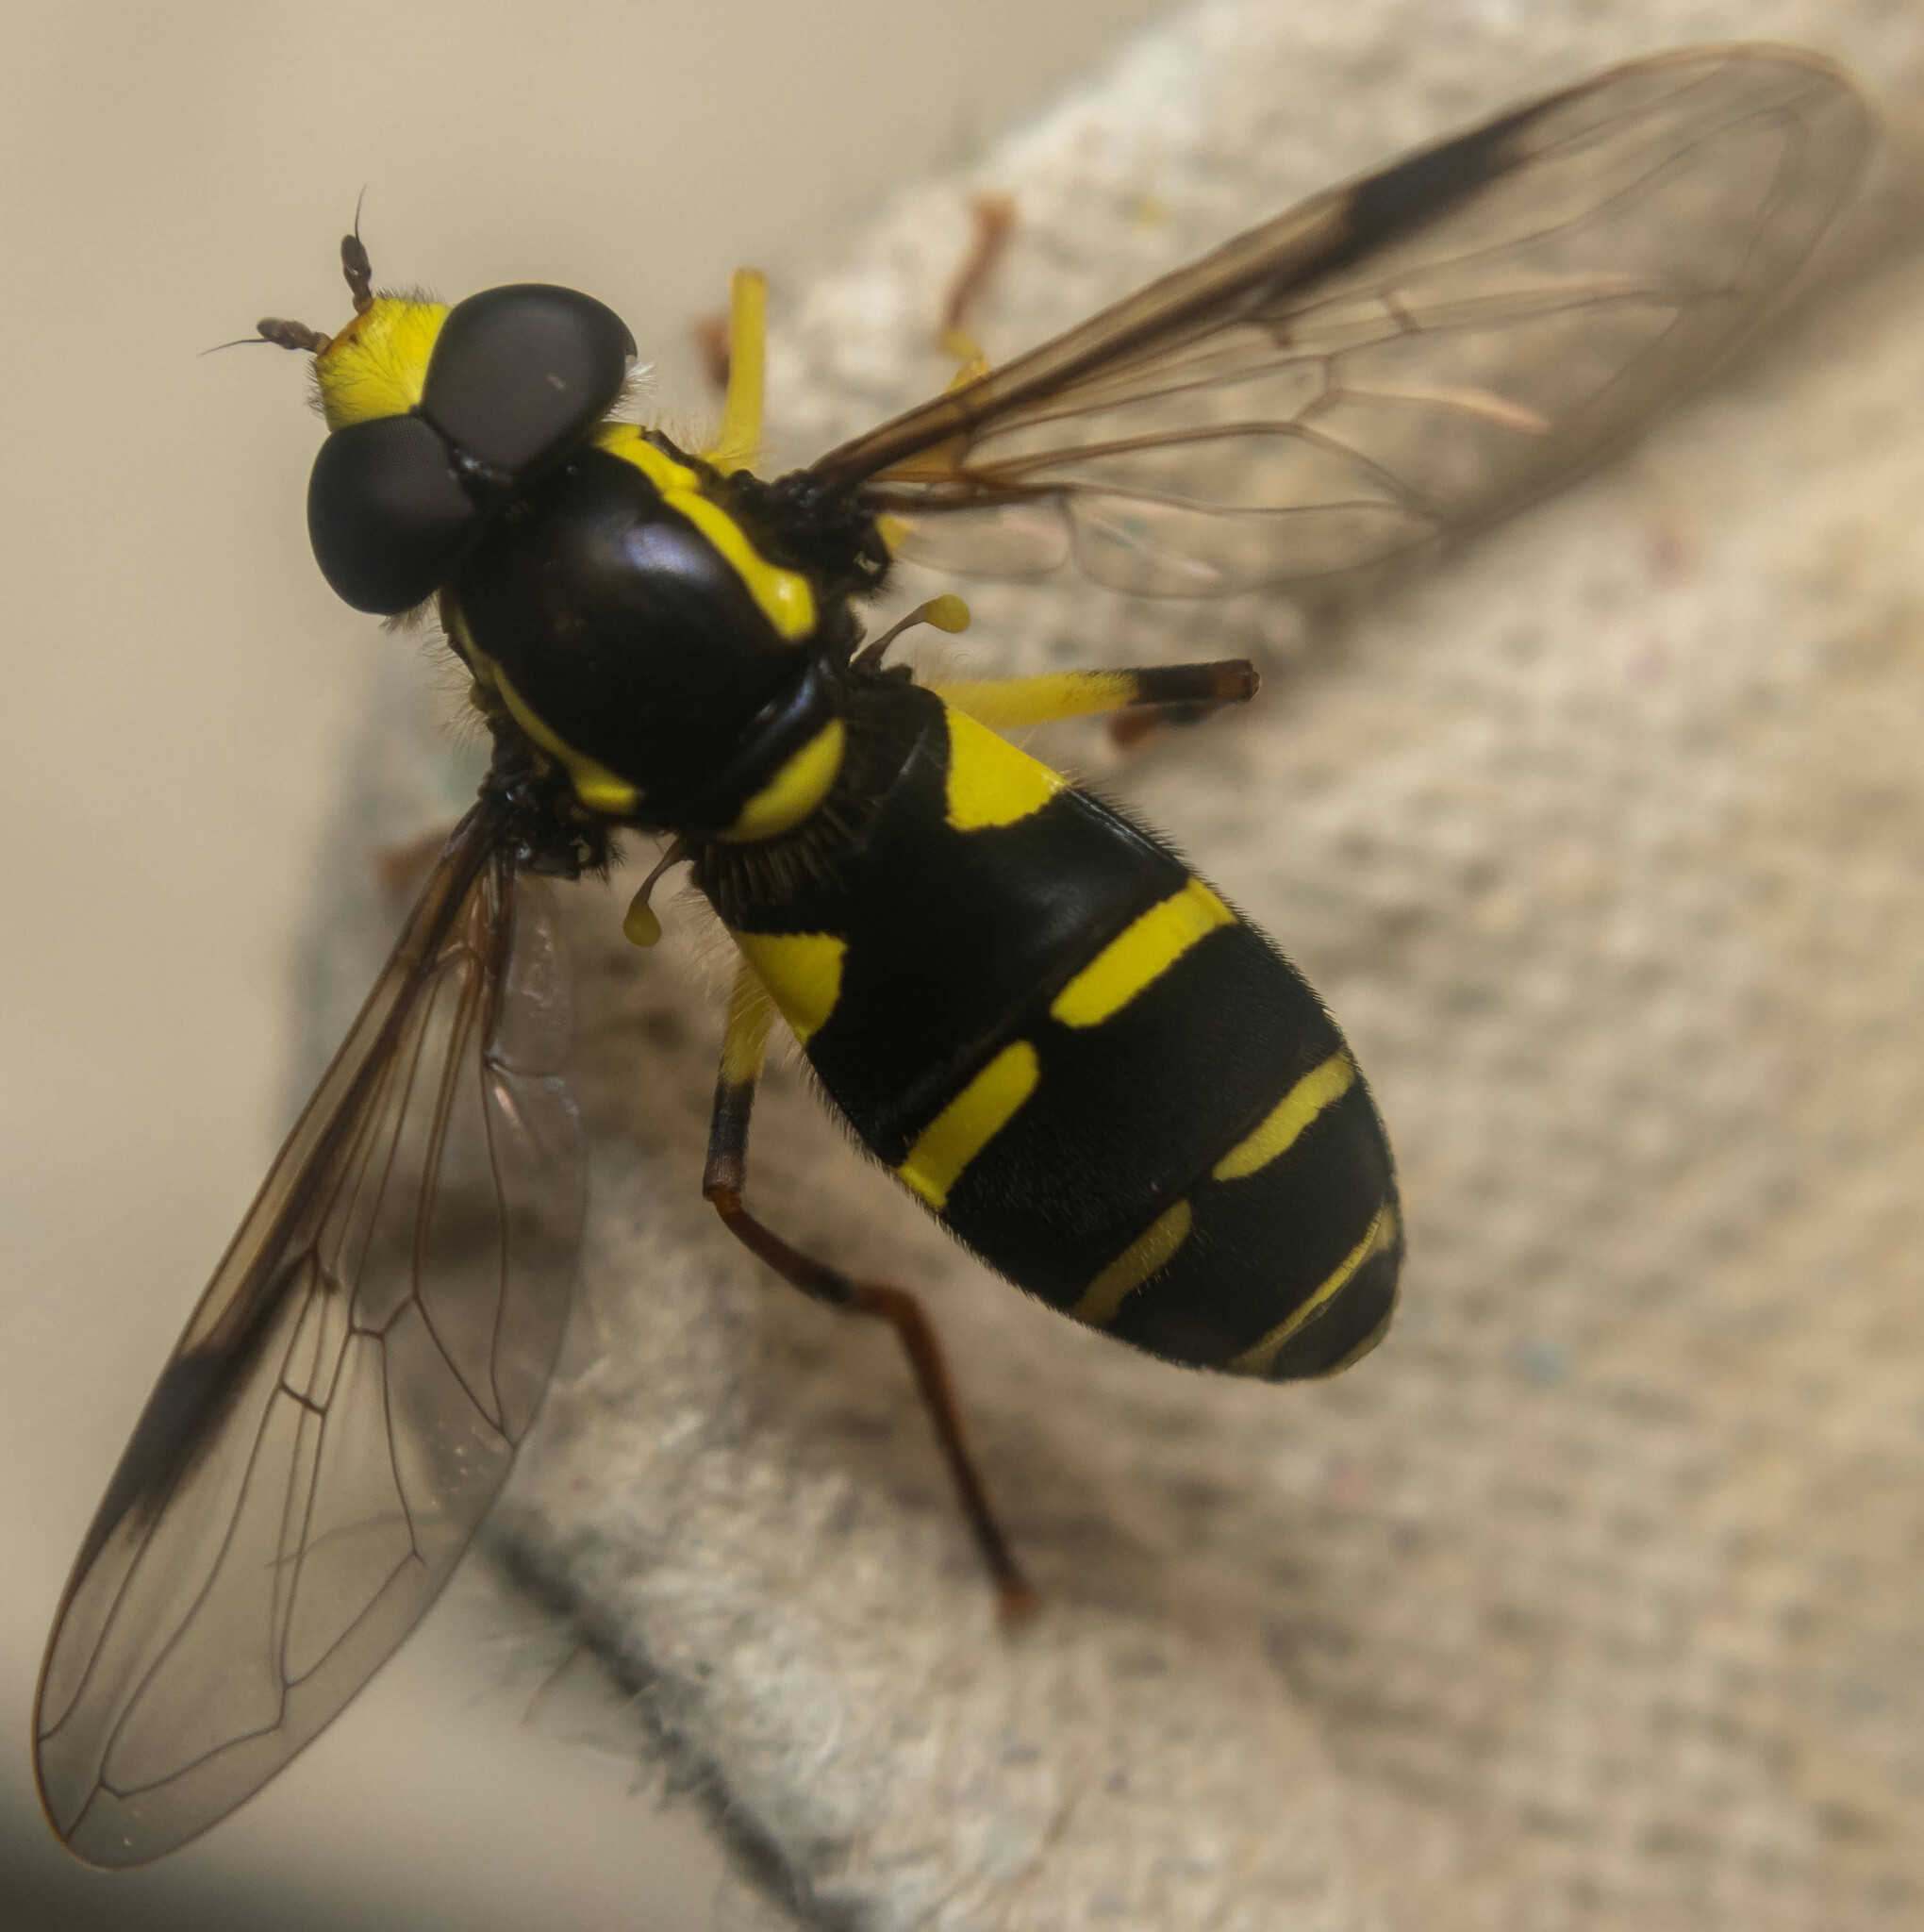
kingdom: Animalia
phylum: Arthropoda
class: Insecta
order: Diptera
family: Syrphidae
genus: Philhelius
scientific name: Philhelius pedissequum
